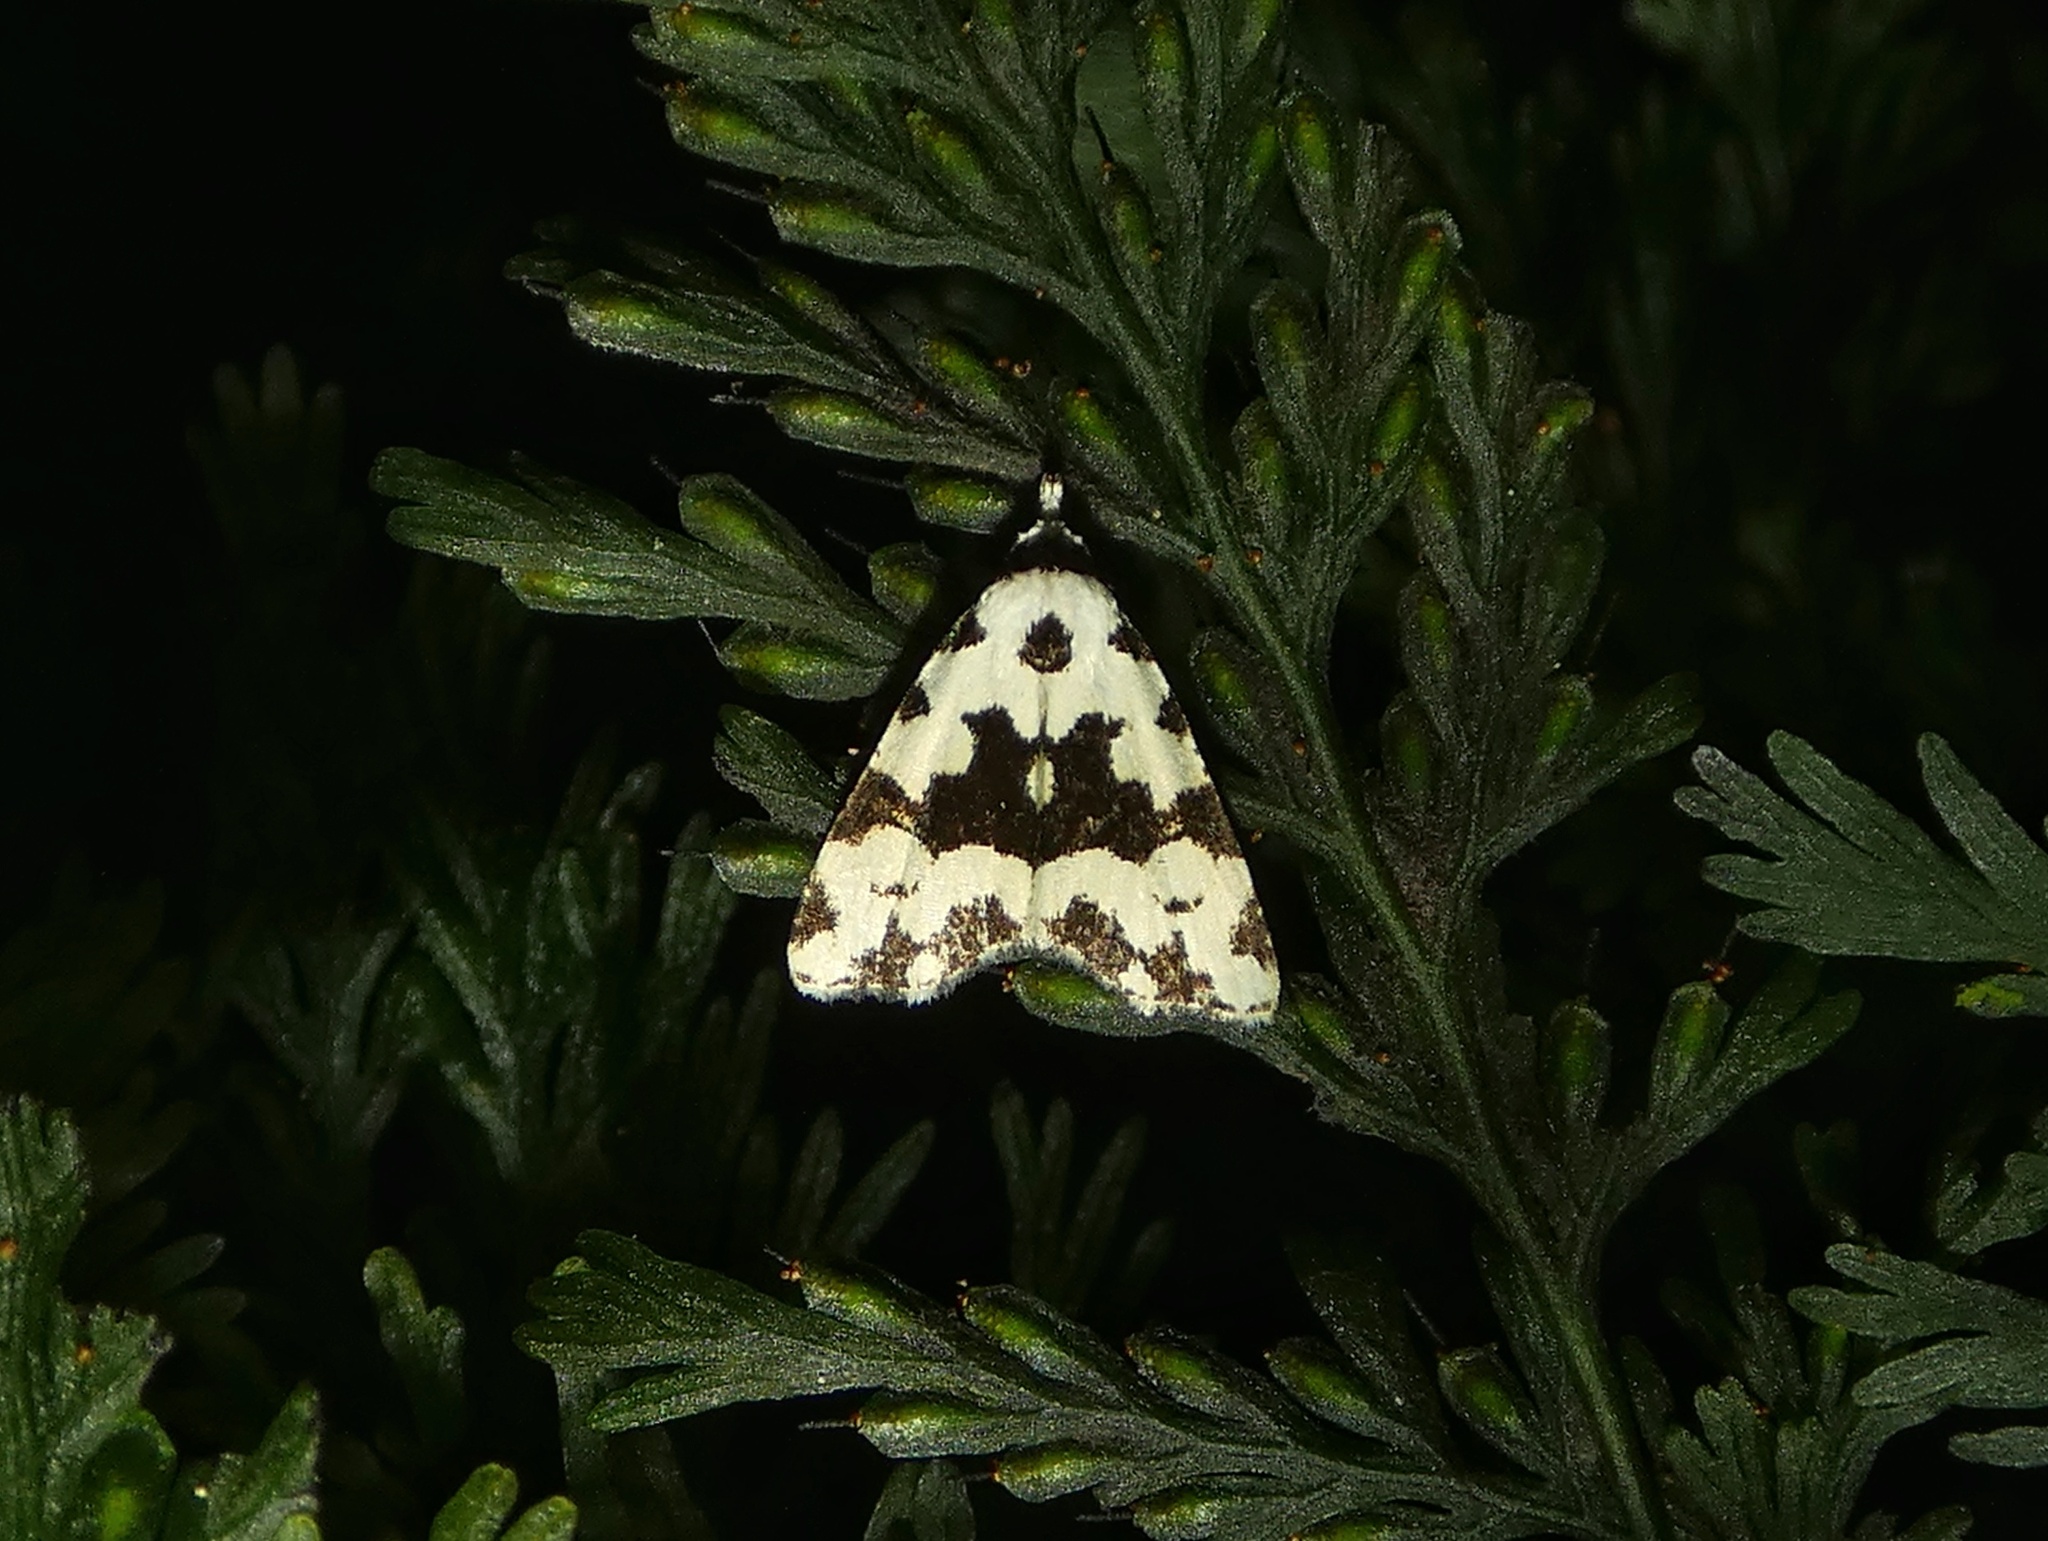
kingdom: Animalia
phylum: Arthropoda
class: Insecta
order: Lepidoptera
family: Erebidae
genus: Chusaris
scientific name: Chusaris
